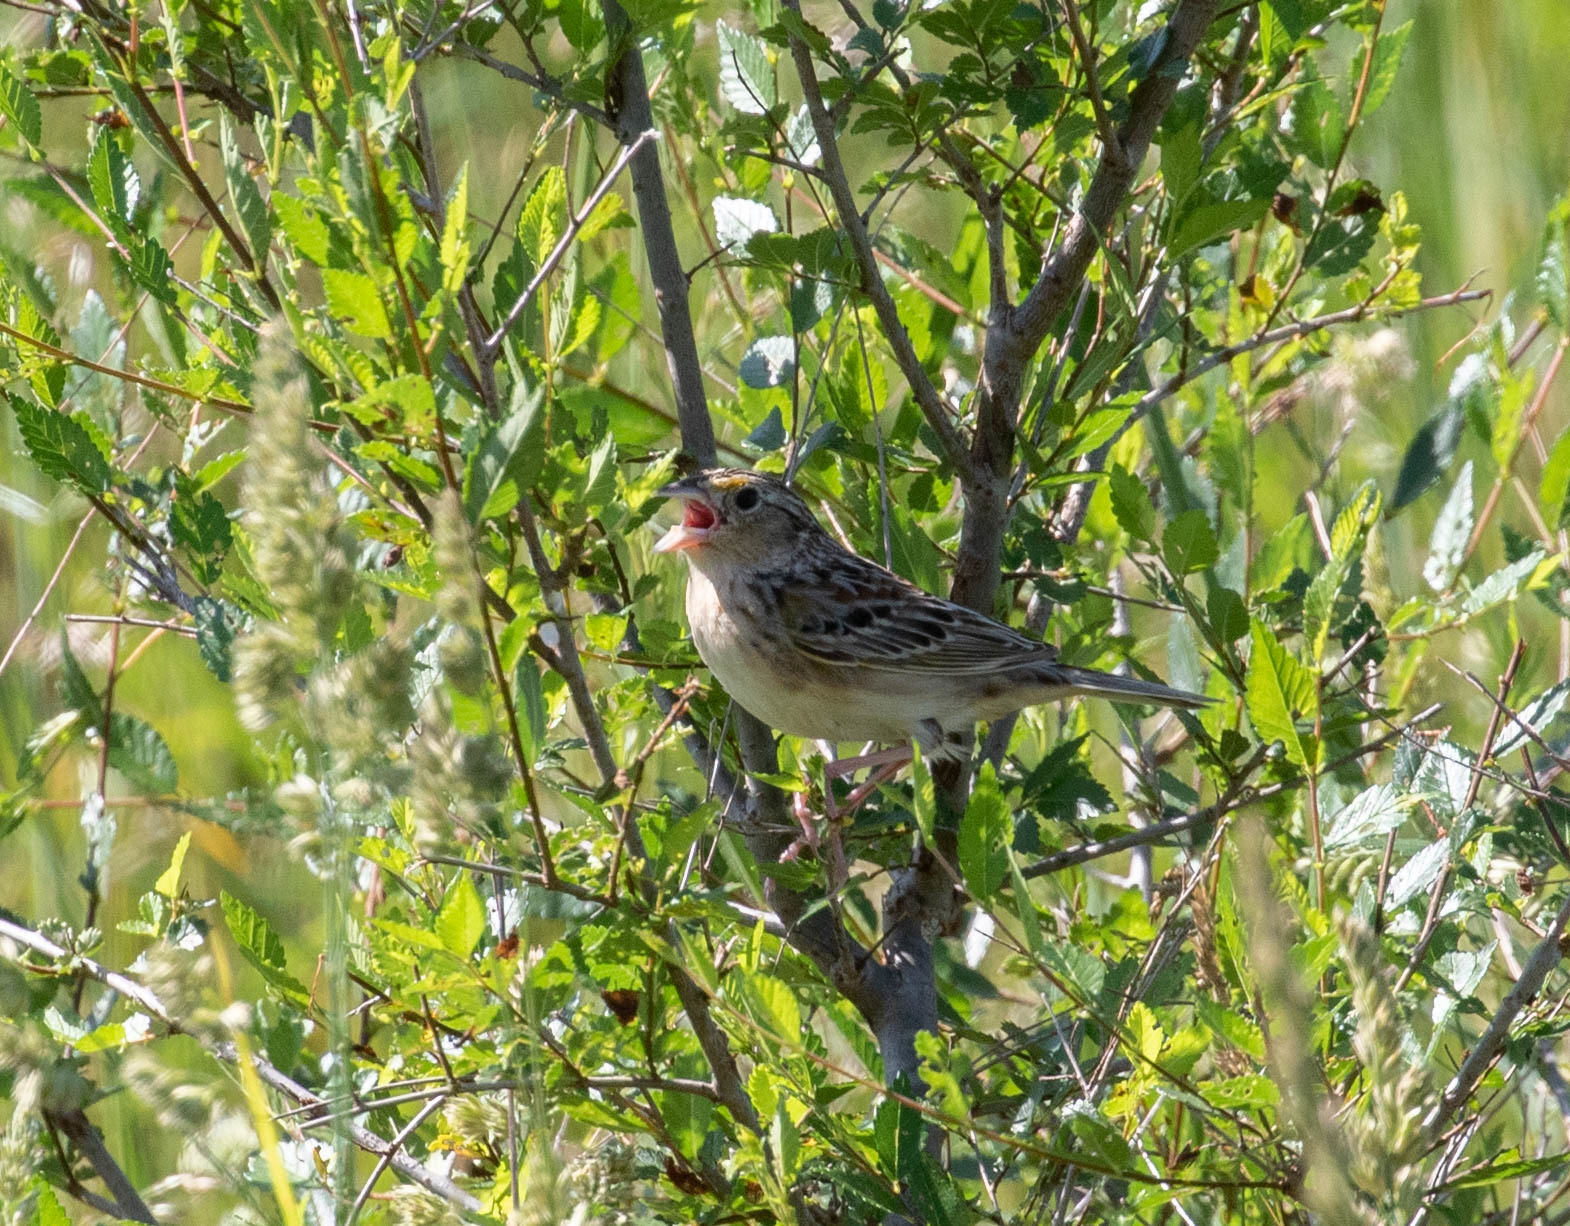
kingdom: Animalia
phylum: Chordata
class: Aves
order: Passeriformes
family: Passerellidae
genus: Ammodramus
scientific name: Ammodramus savannarum
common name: Grasshopper sparrow
